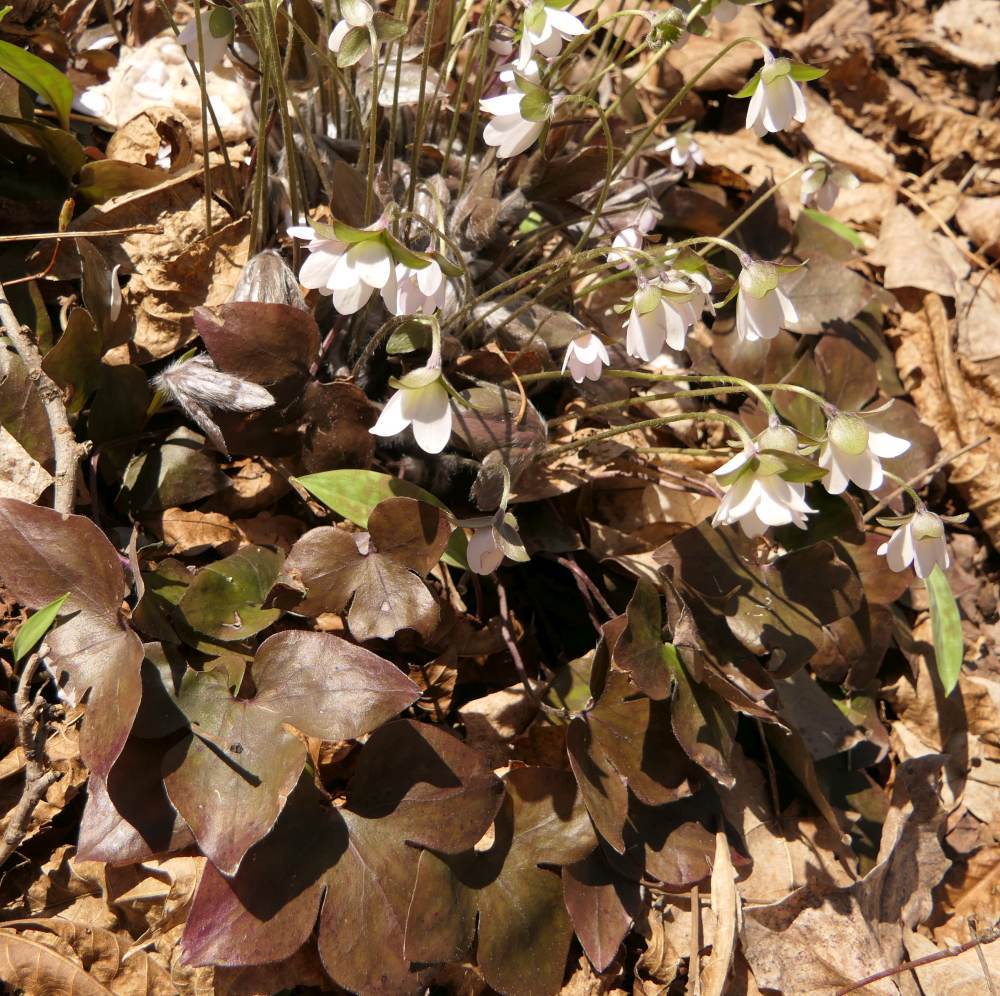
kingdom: Plantae
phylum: Tracheophyta
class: Magnoliopsida
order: Ranunculales
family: Ranunculaceae
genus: Hepatica
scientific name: Hepatica acutiloba
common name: Sharp-lobed hepatica
